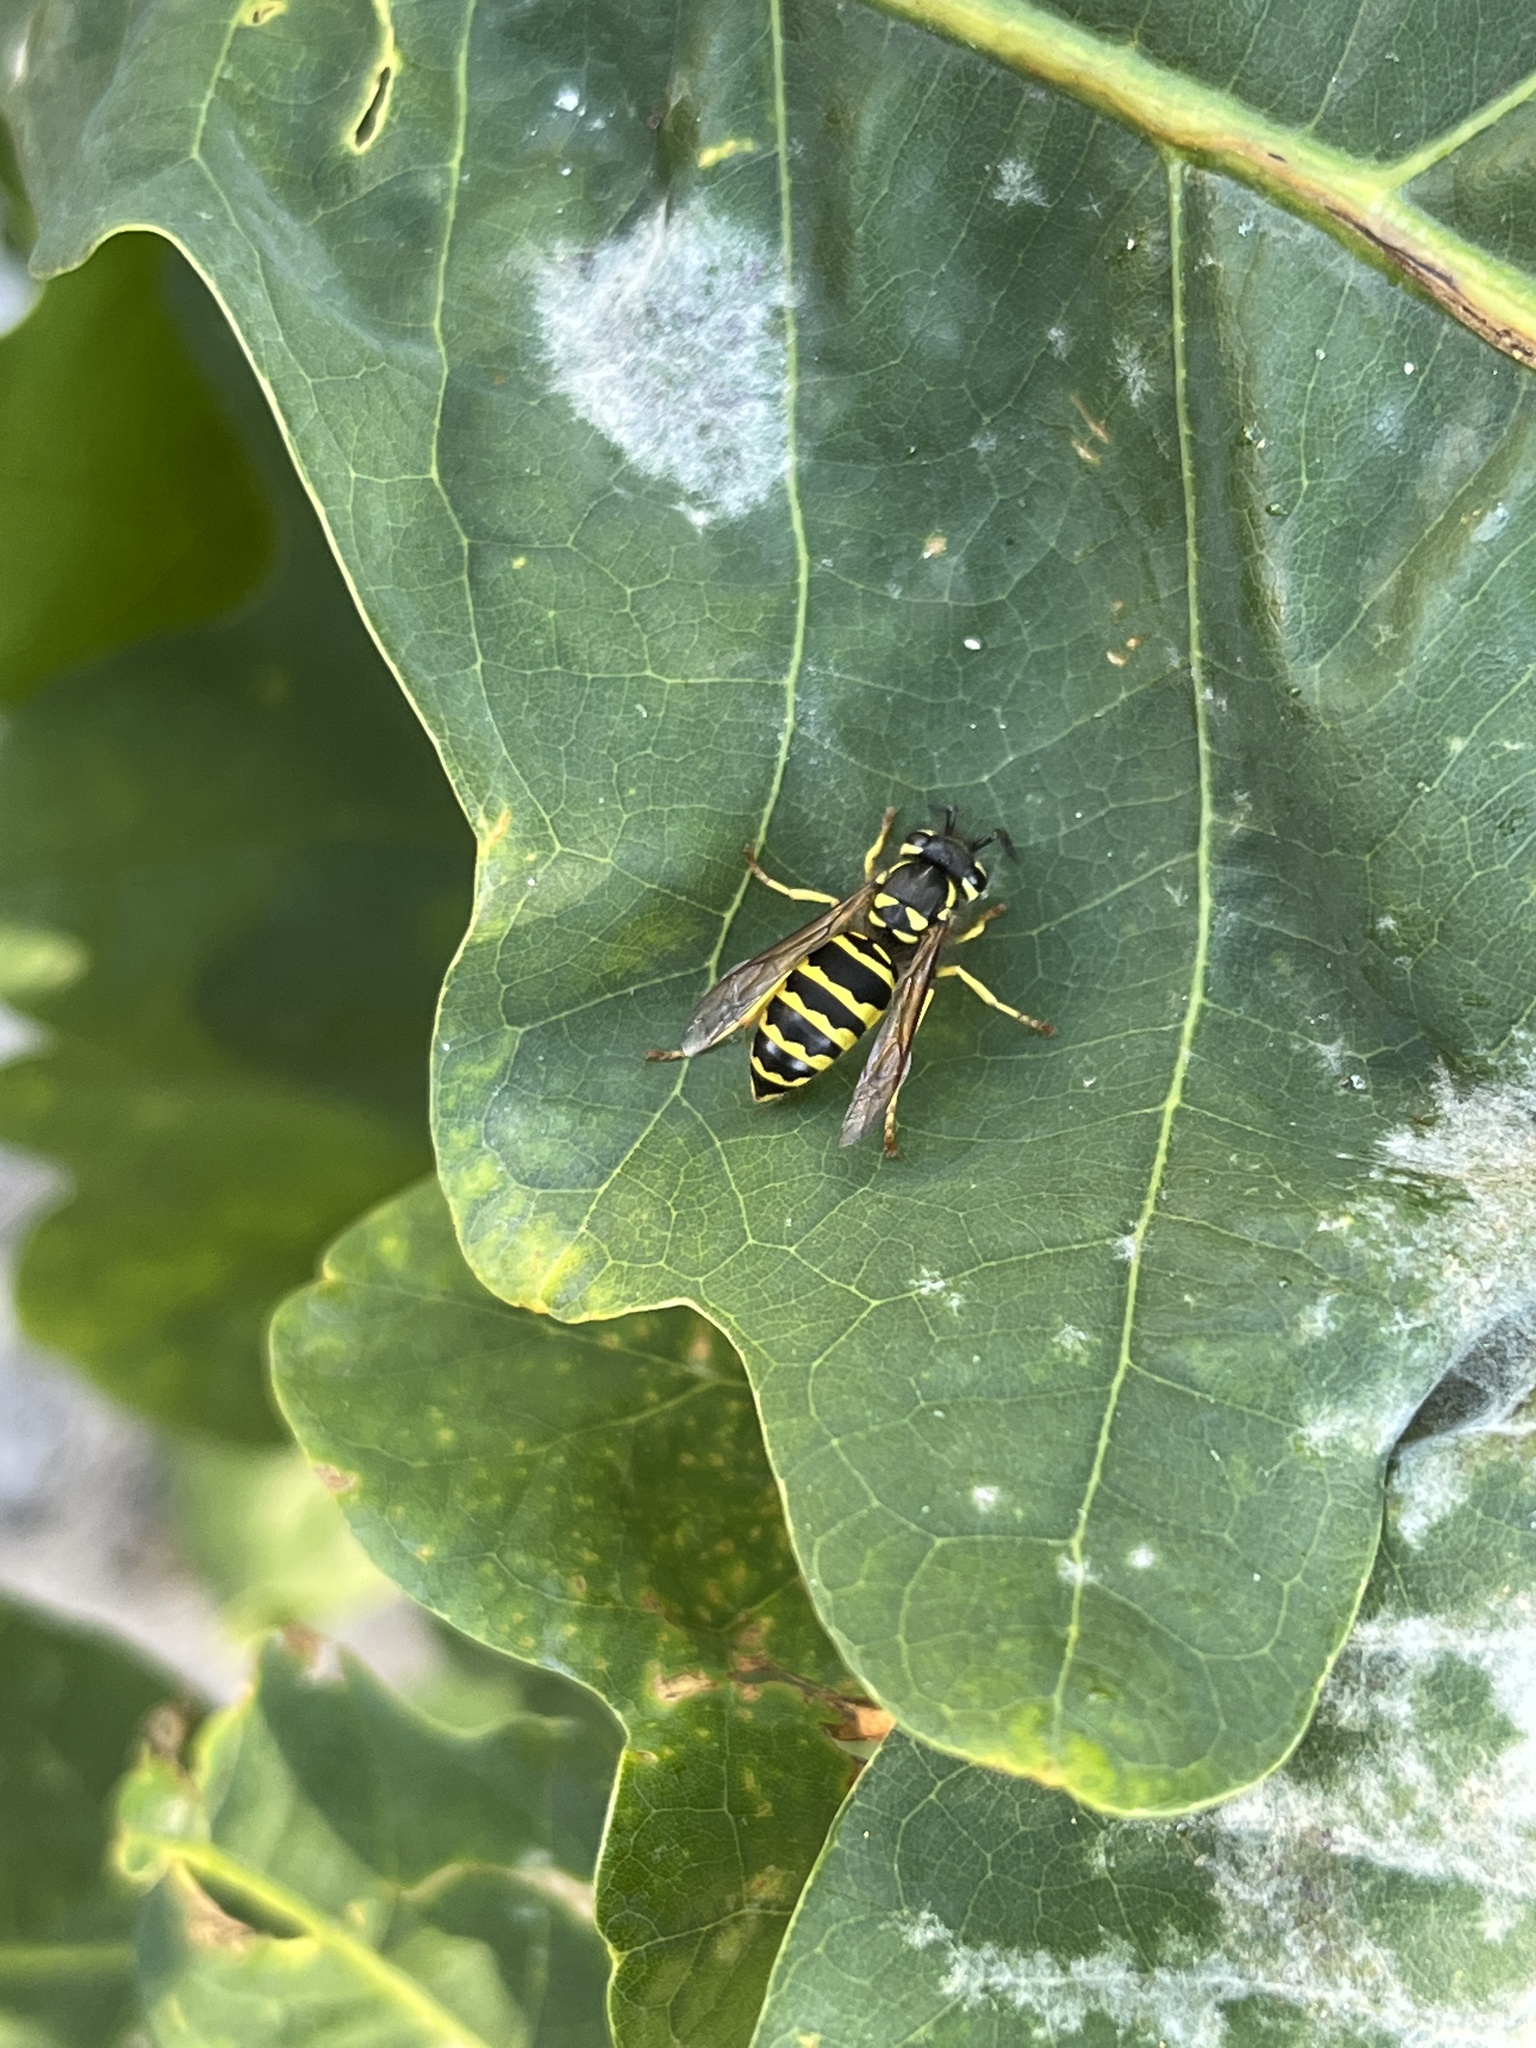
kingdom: Animalia
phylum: Arthropoda
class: Insecta
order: Hymenoptera
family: Vespidae
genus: Vespula
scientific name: Vespula maculifrons
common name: Eastern yellowjacket
